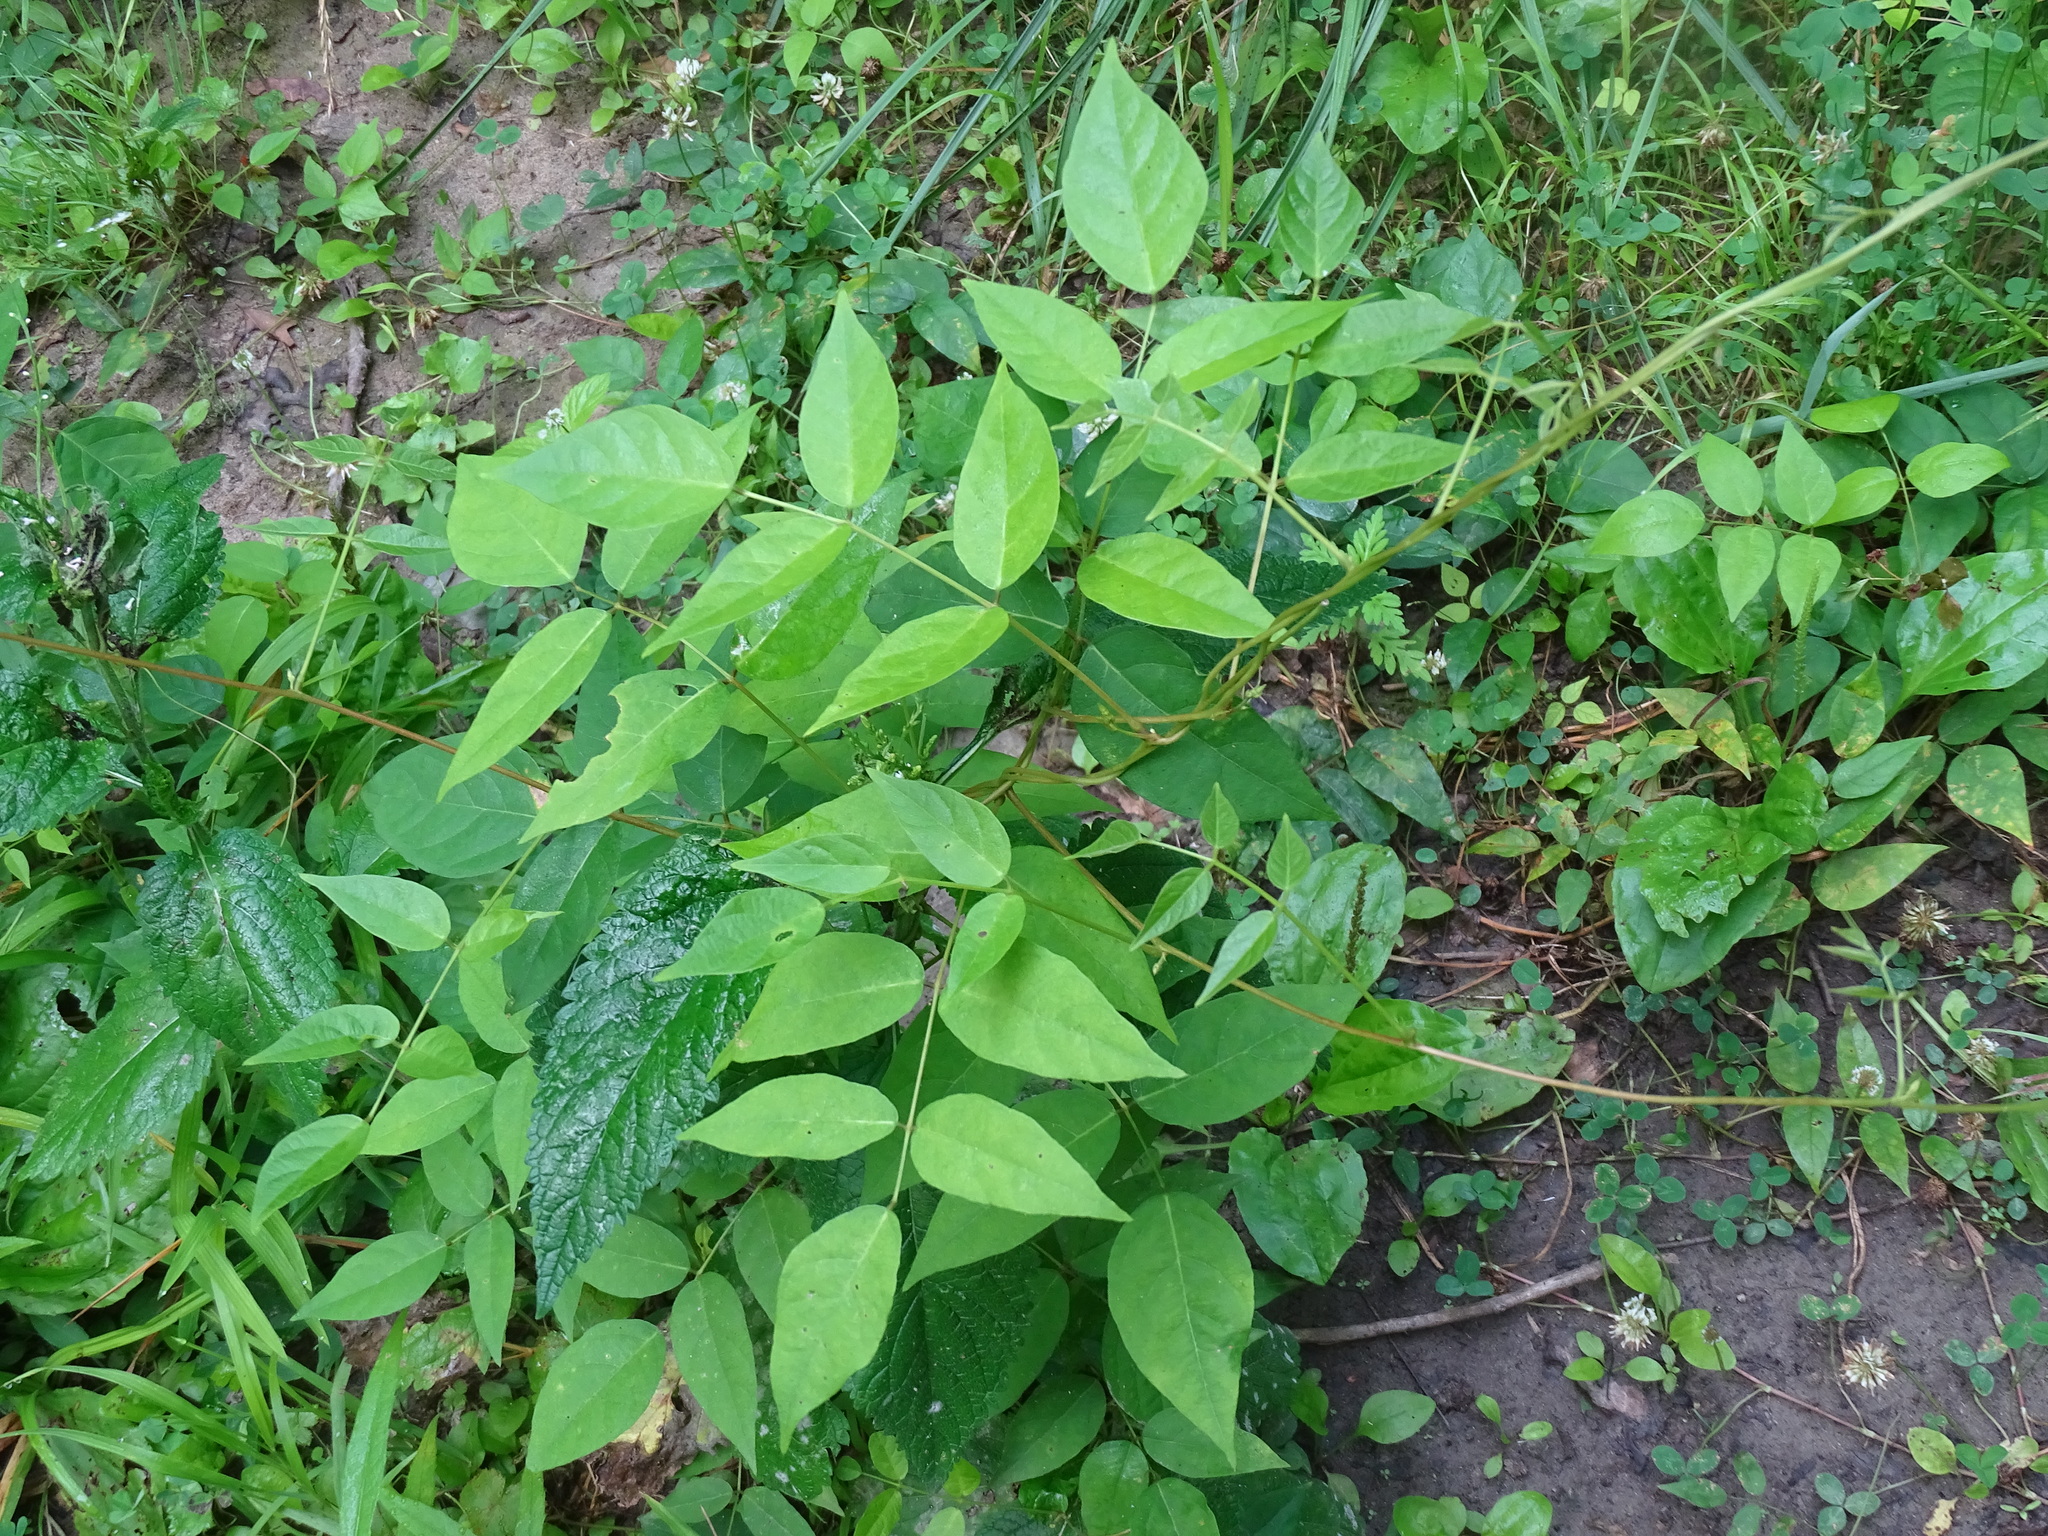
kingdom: Plantae
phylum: Tracheophyta
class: Magnoliopsida
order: Fabales
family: Fabaceae
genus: Apios
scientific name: Apios americana
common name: American potato-bean
